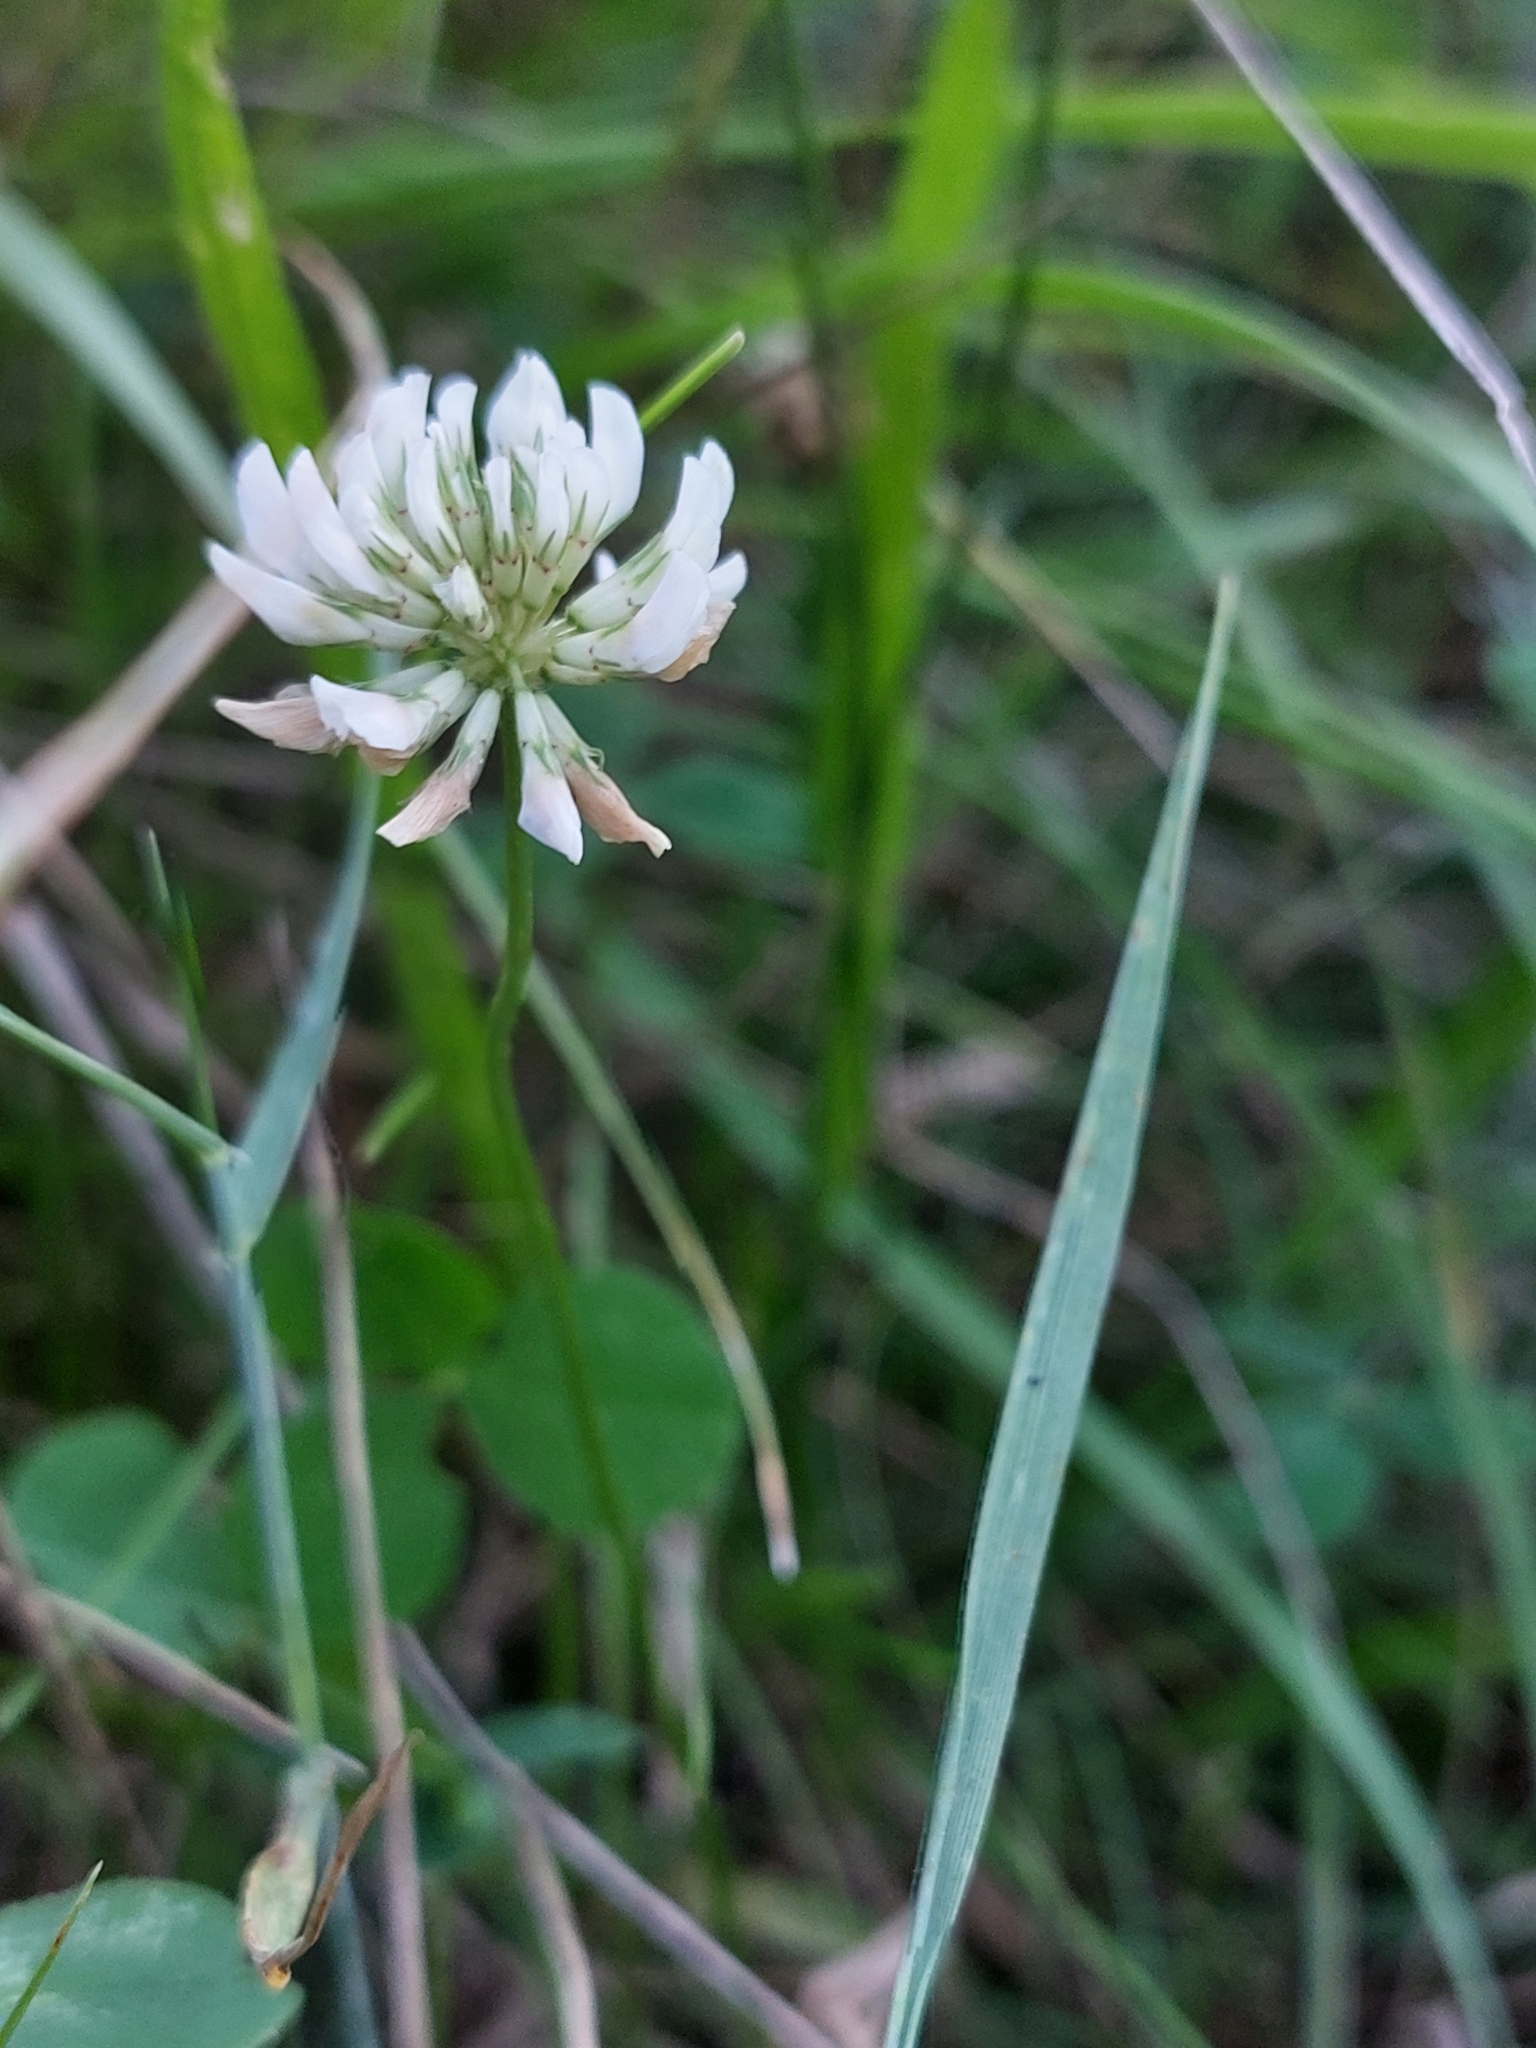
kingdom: Plantae
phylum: Tracheophyta
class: Magnoliopsida
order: Fabales
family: Fabaceae
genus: Trifolium
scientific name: Trifolium repens
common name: White clover
